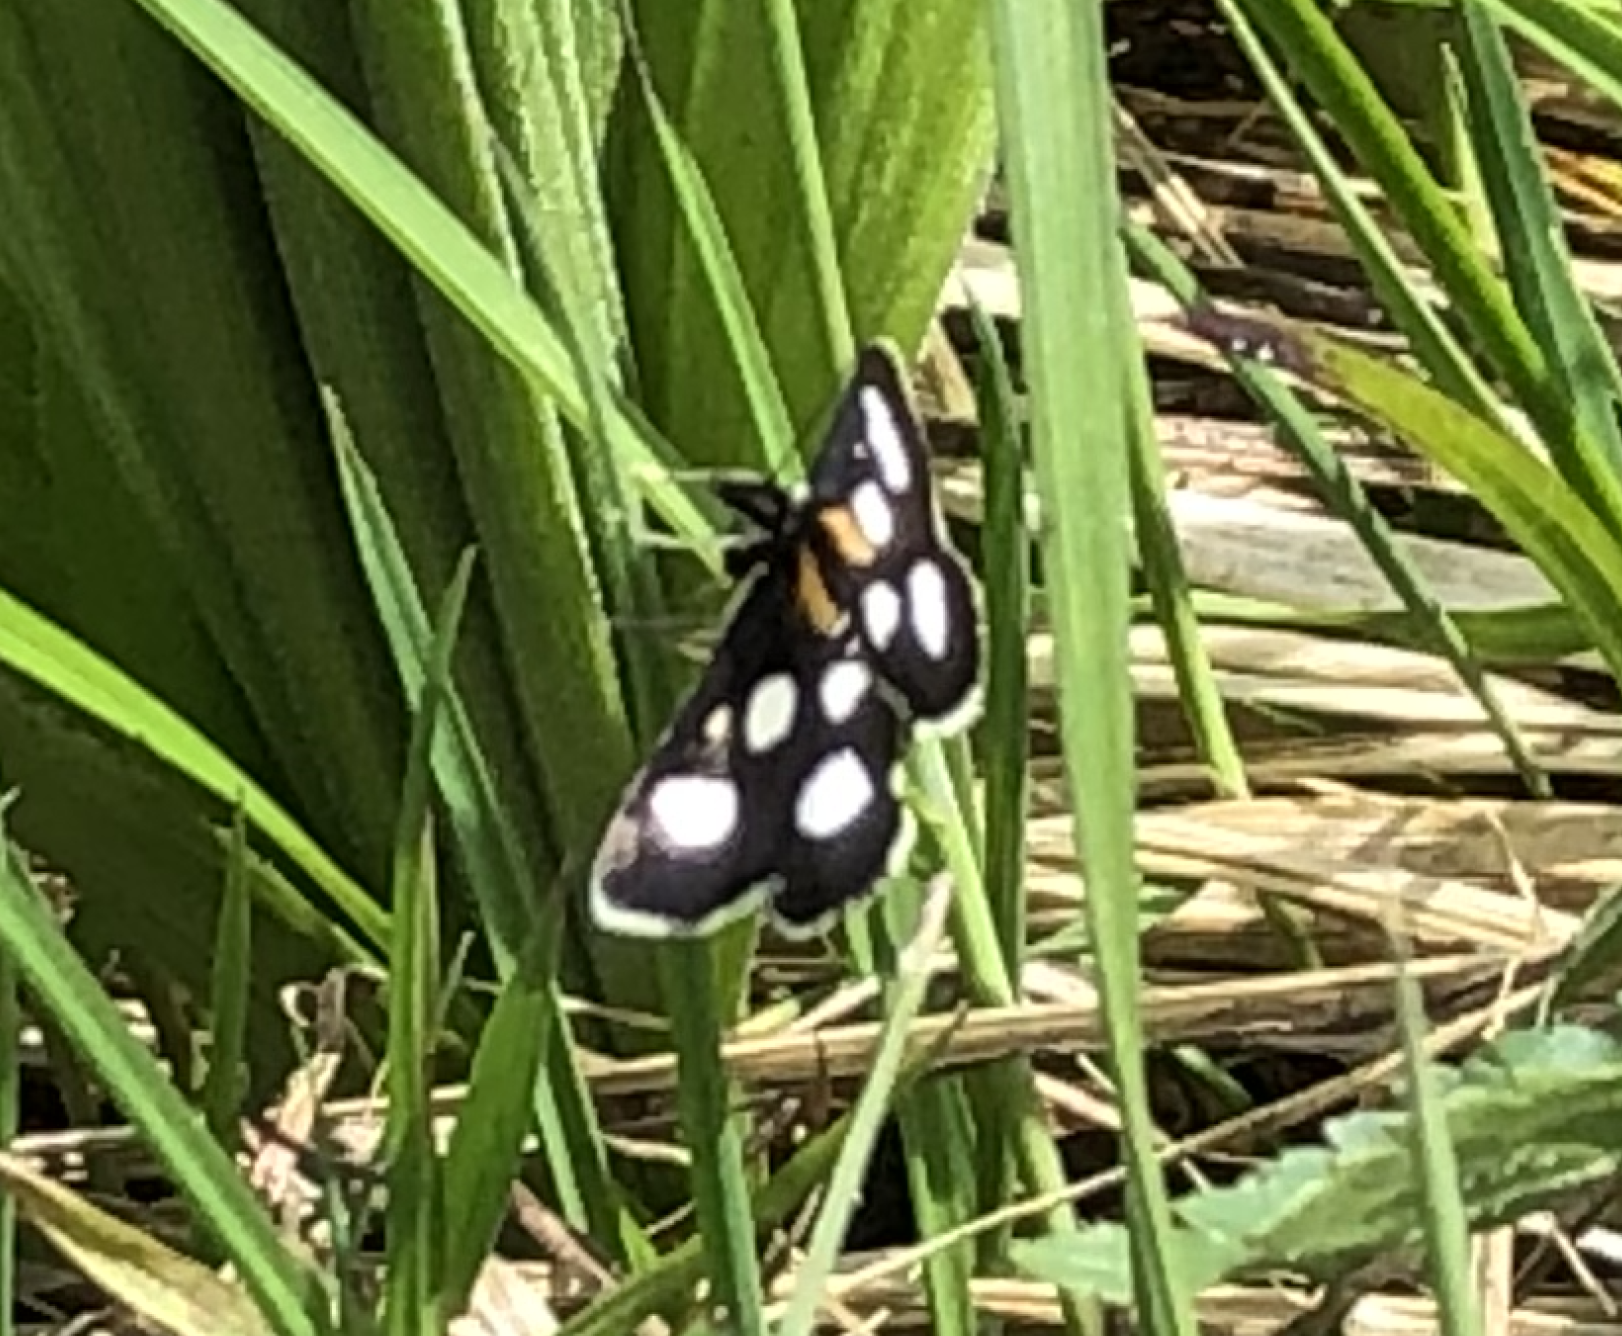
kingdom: Animalia
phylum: Arthropoda
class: Insecta
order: Lepidoptera
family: Crambidae
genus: Anania
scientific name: Anania funebris
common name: White-spotted sable moth
